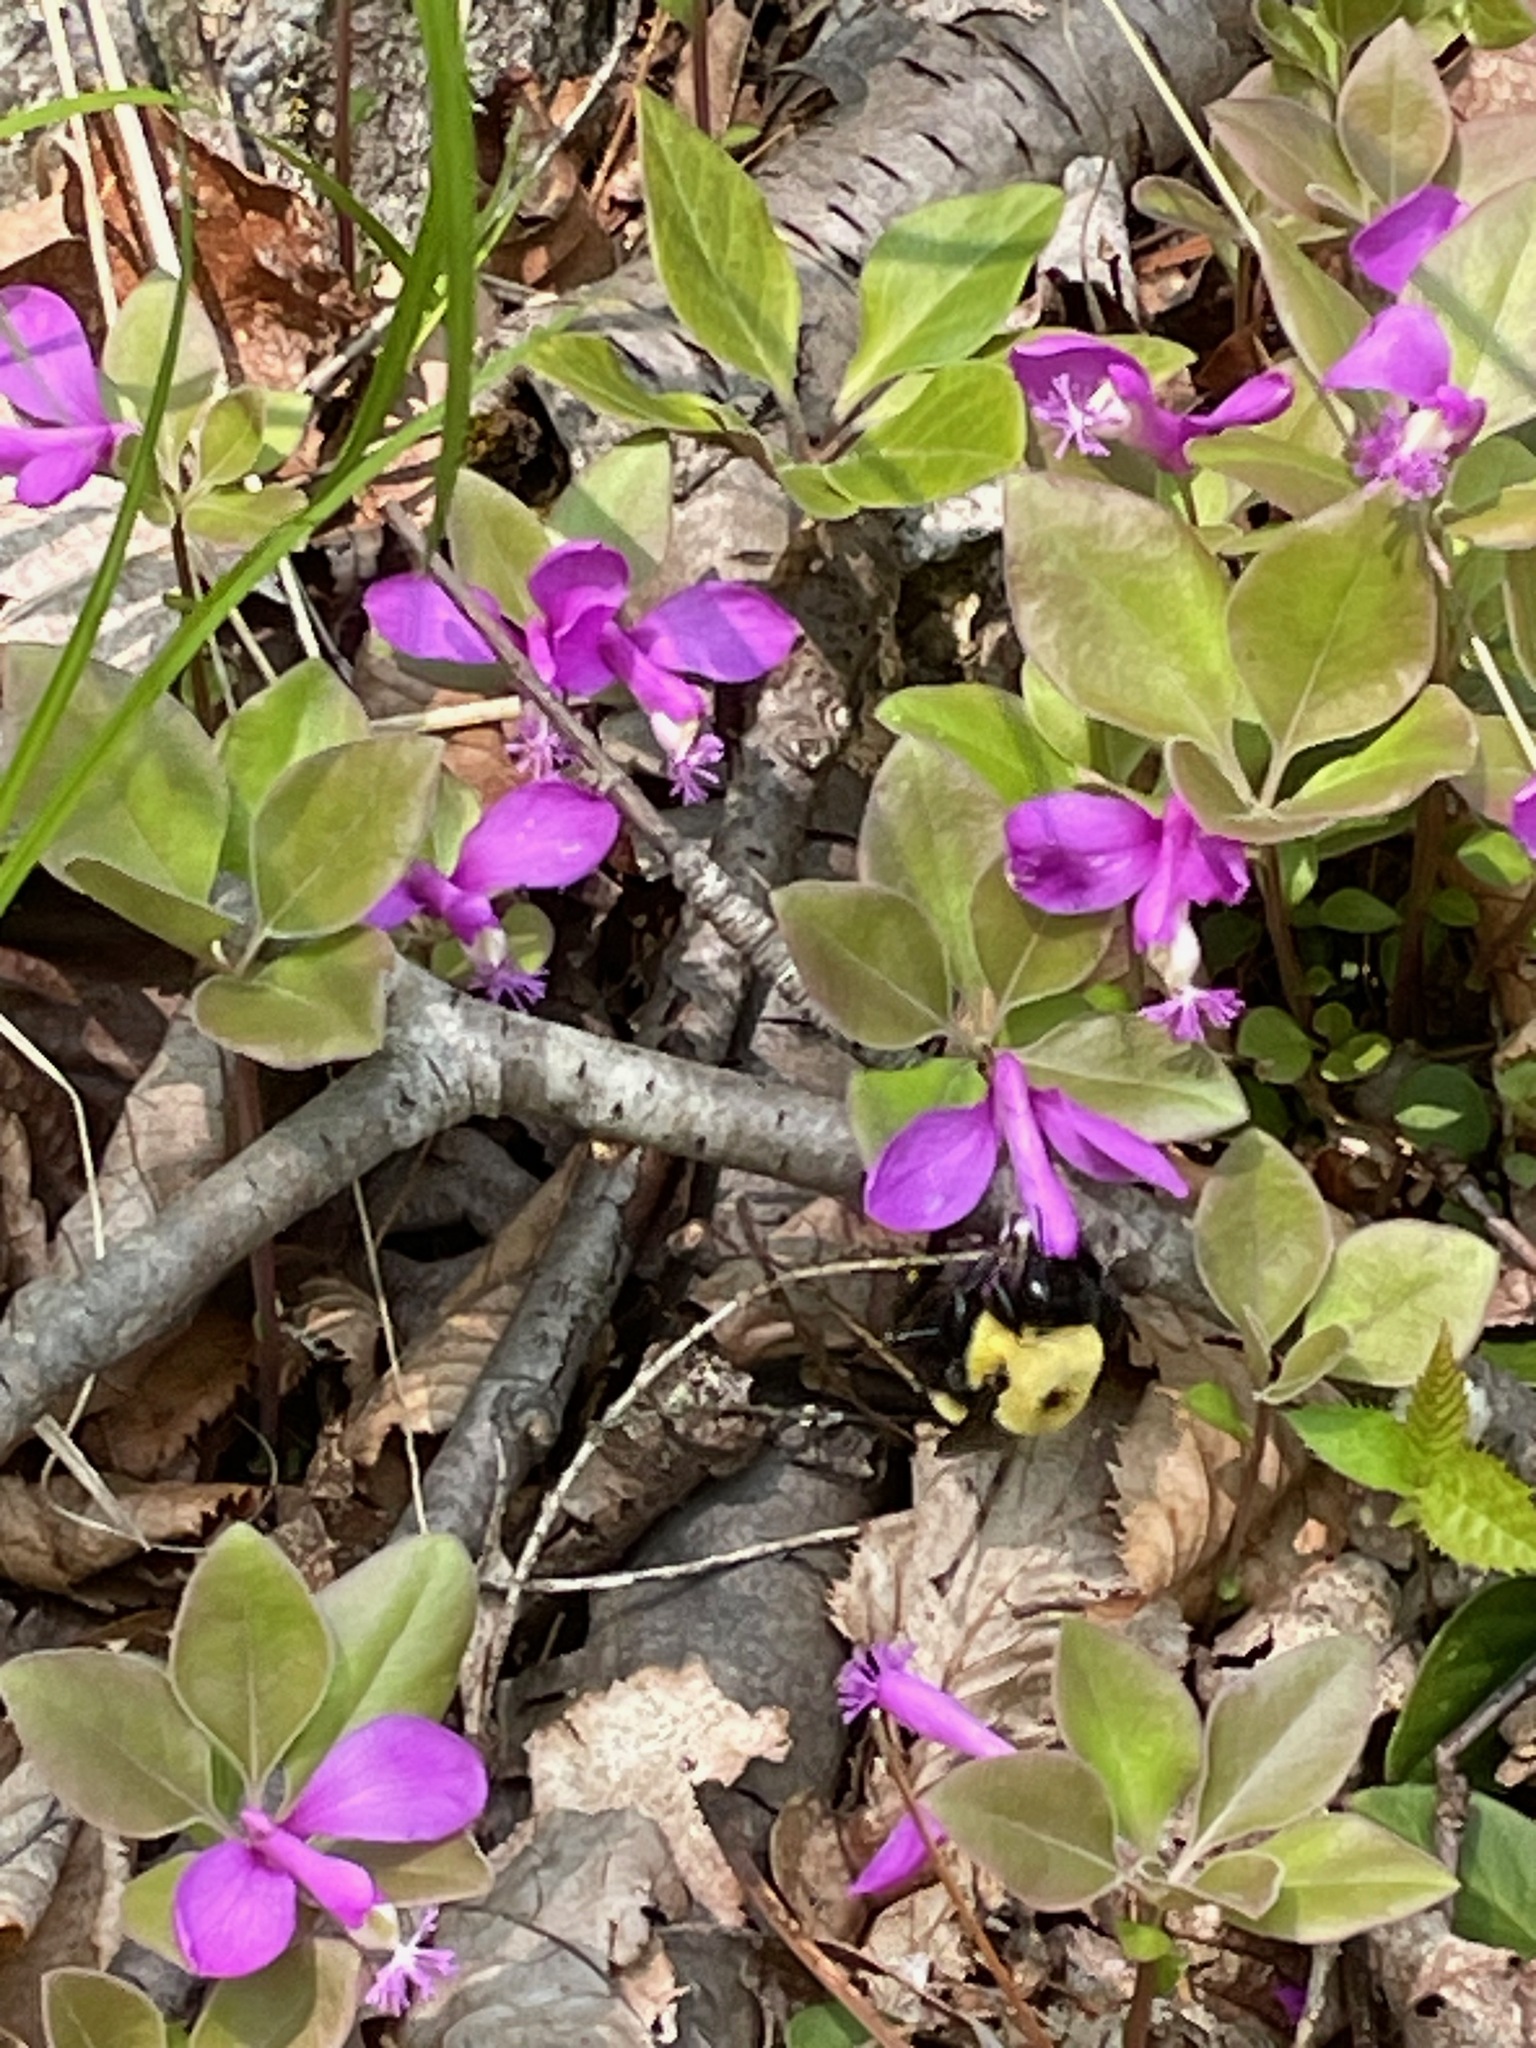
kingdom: Plantae
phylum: Tracheophyta
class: Magnoliopsida
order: Fabales
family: Polygalaceae
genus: Polygaloides
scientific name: Polygaloides paucifolia
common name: Bird-on-the-wing
